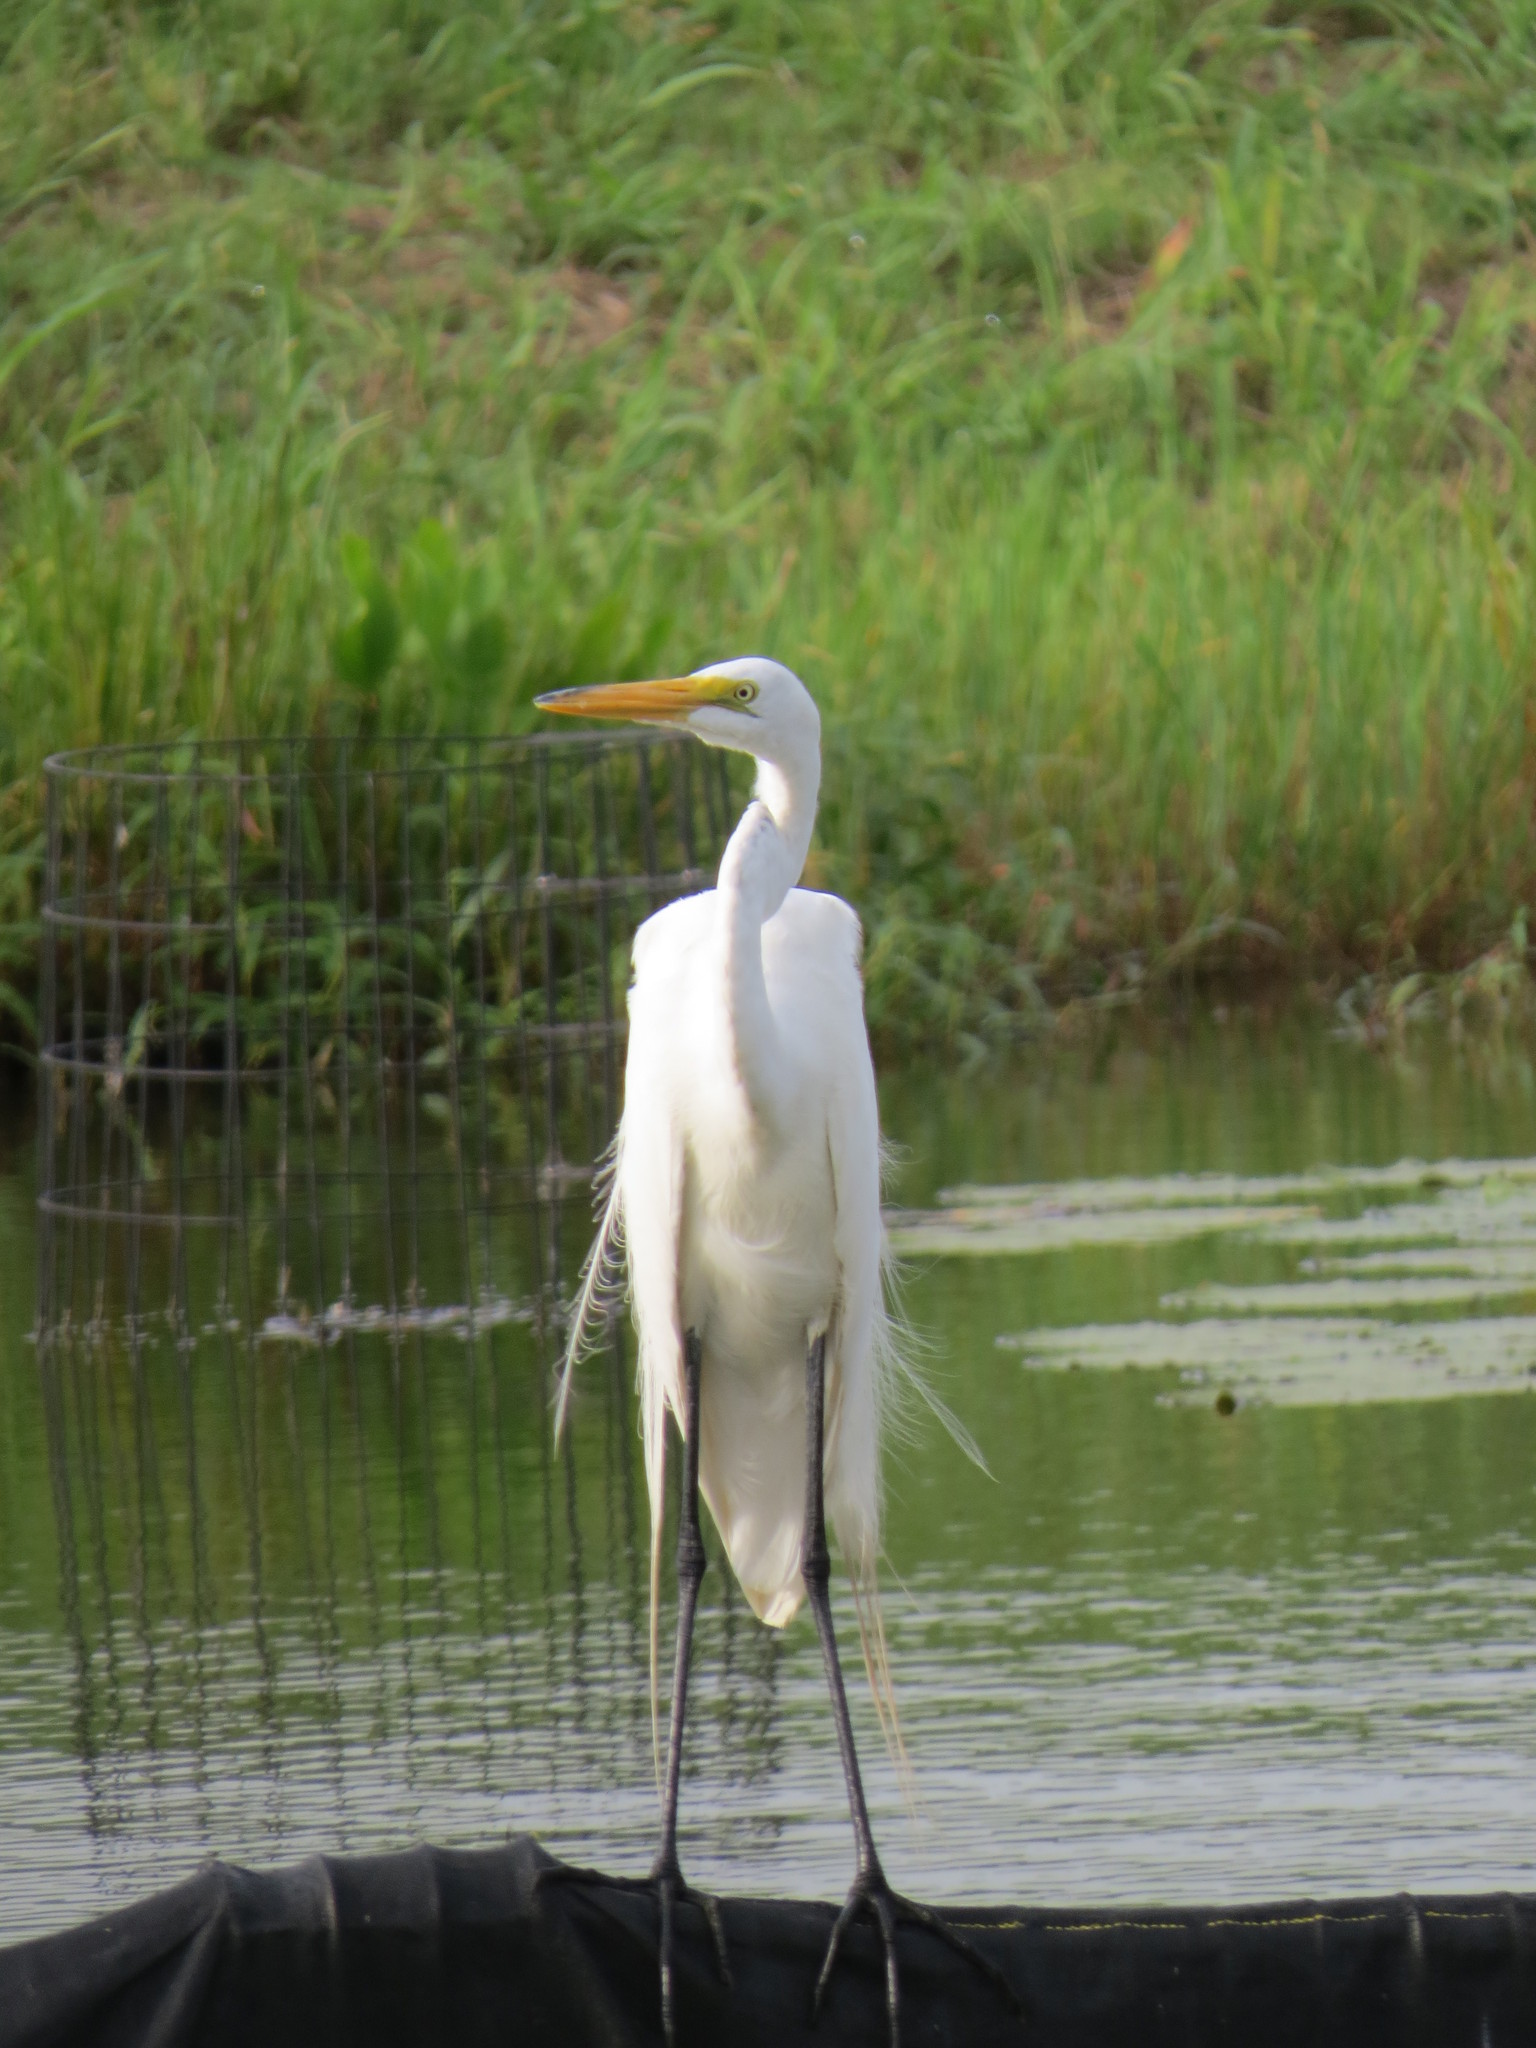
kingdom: Animalia
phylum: Chordata
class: Aves
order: Pelecaniformes
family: Ardeidae
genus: Ardea
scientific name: Ardea alba
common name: Great egret
